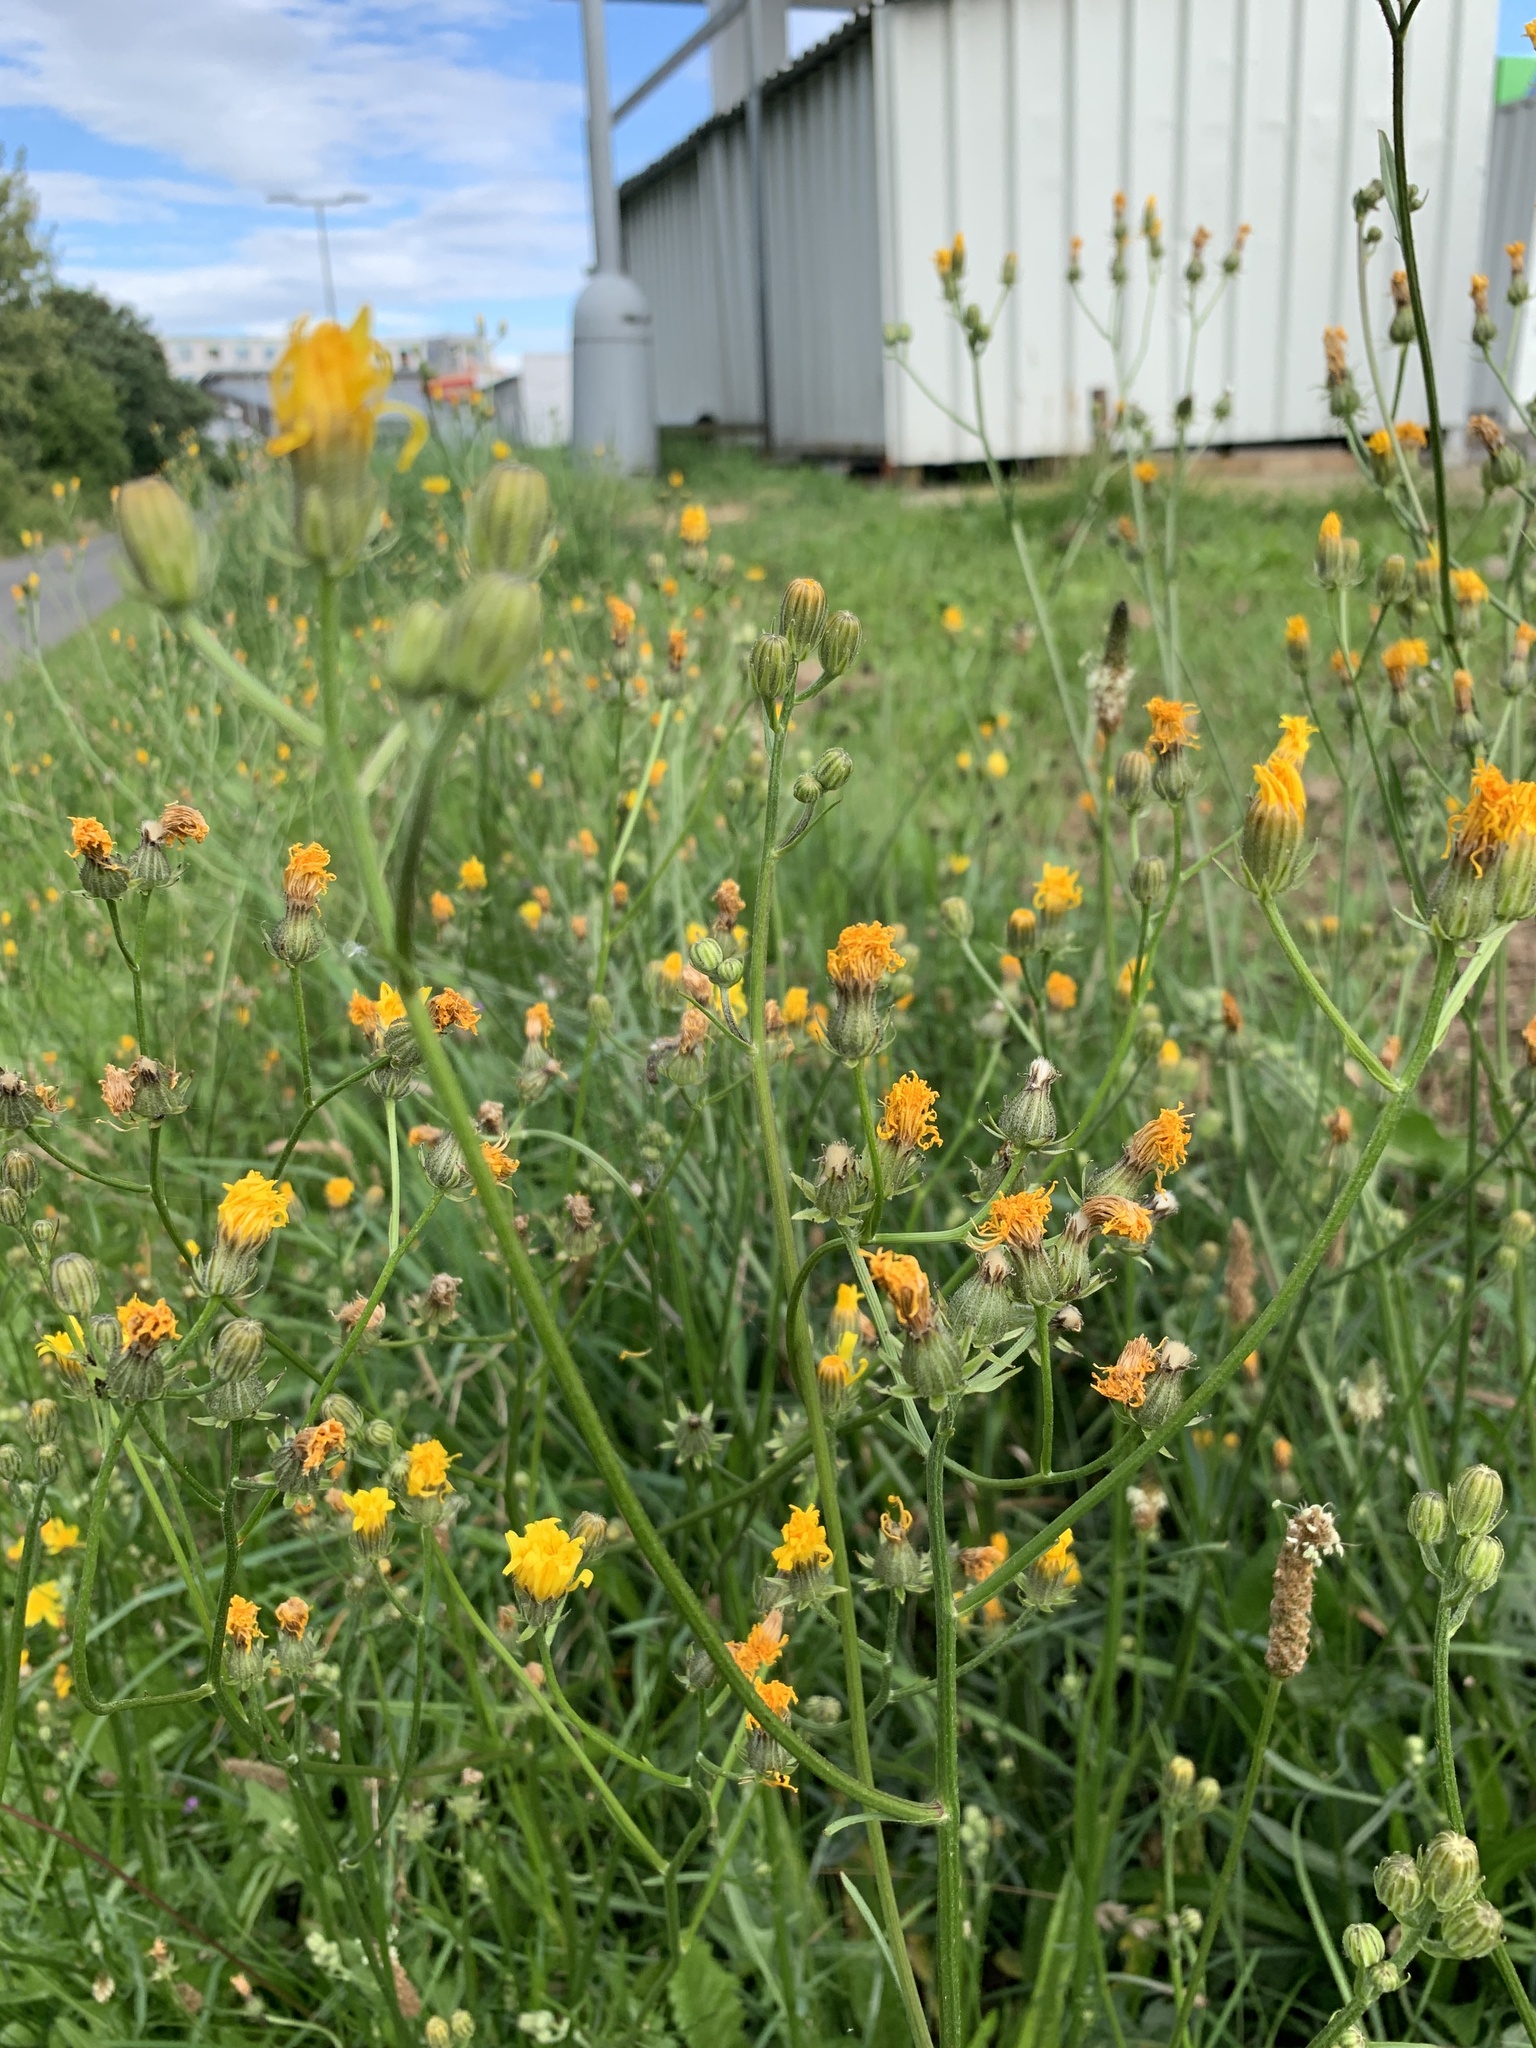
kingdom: Plantae
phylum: Tracheophyta
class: Magnoliopsida
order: Asterales
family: Asteraceae
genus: Crepis
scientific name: Crepis biennis
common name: Rough hawk's-beard
